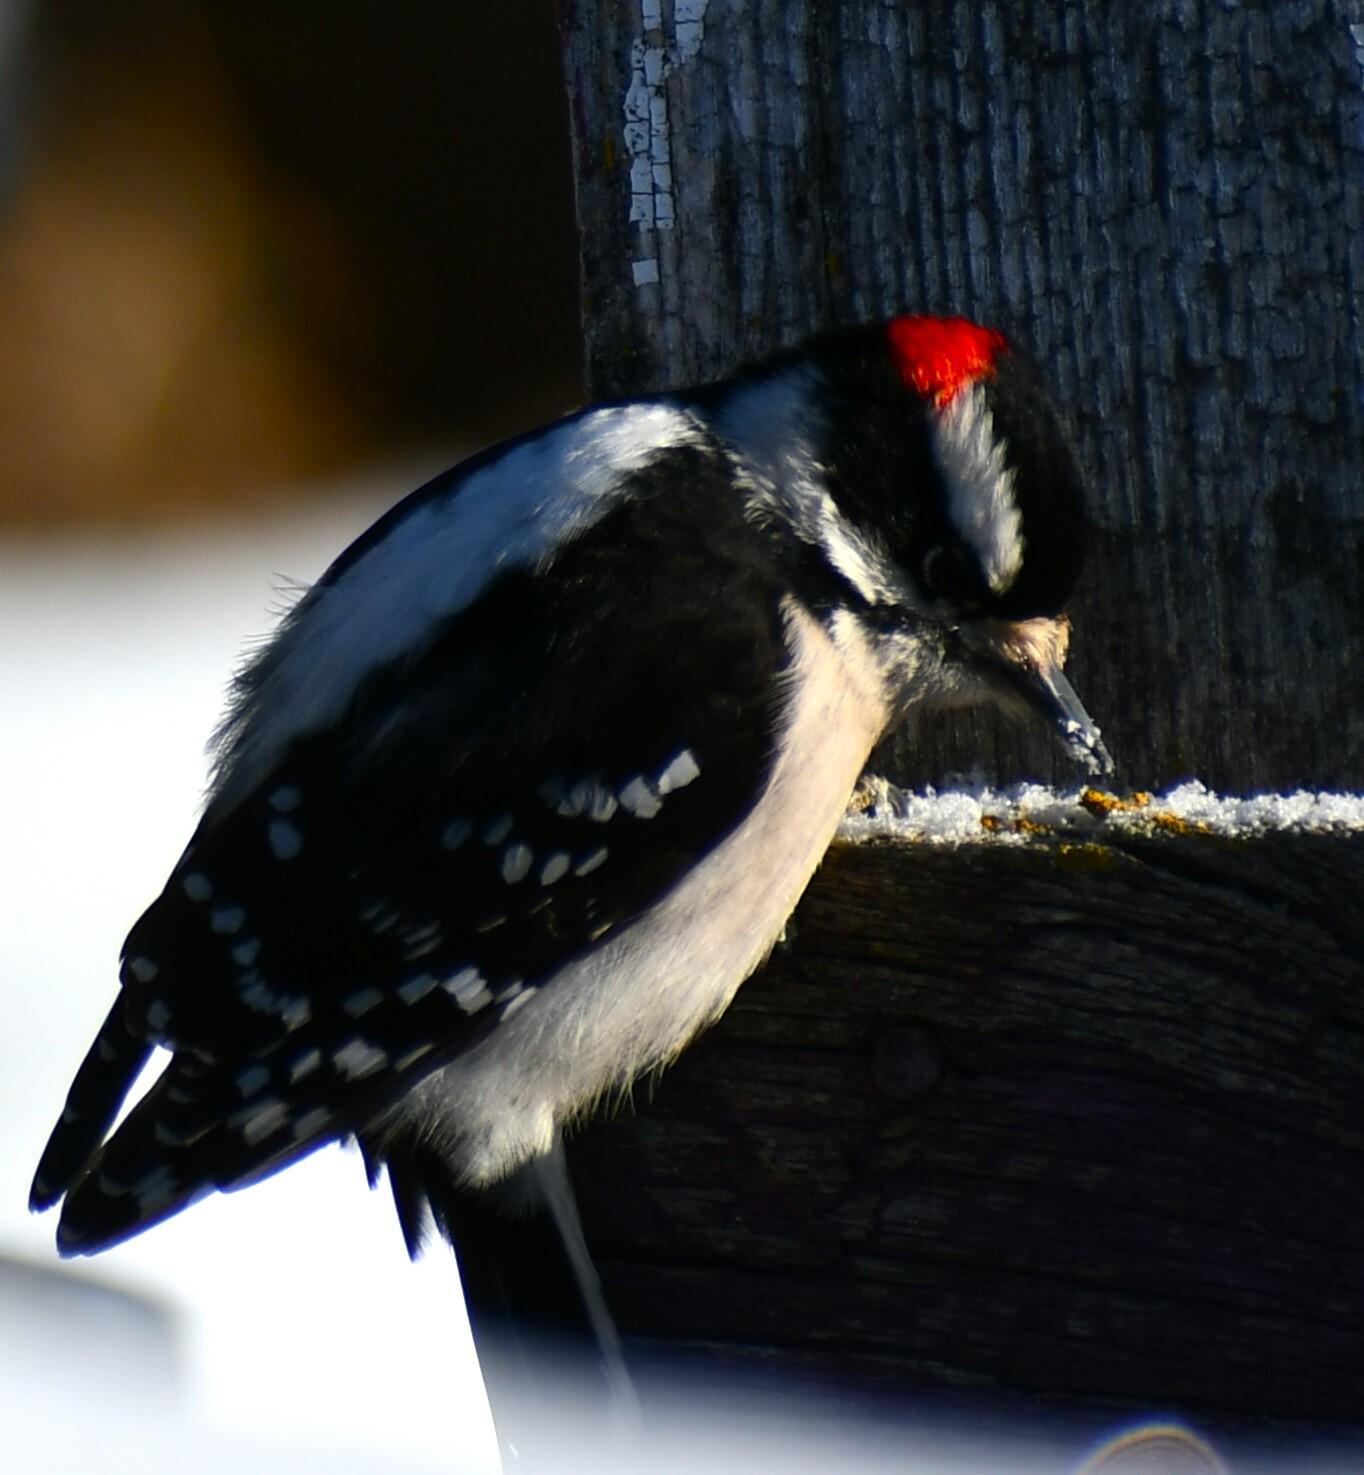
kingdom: Animalia
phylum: Chordata
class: Aves
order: Piciformes
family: Picidae
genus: Dryobates
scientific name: Dryobates pubescens
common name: Downy woodpecker
